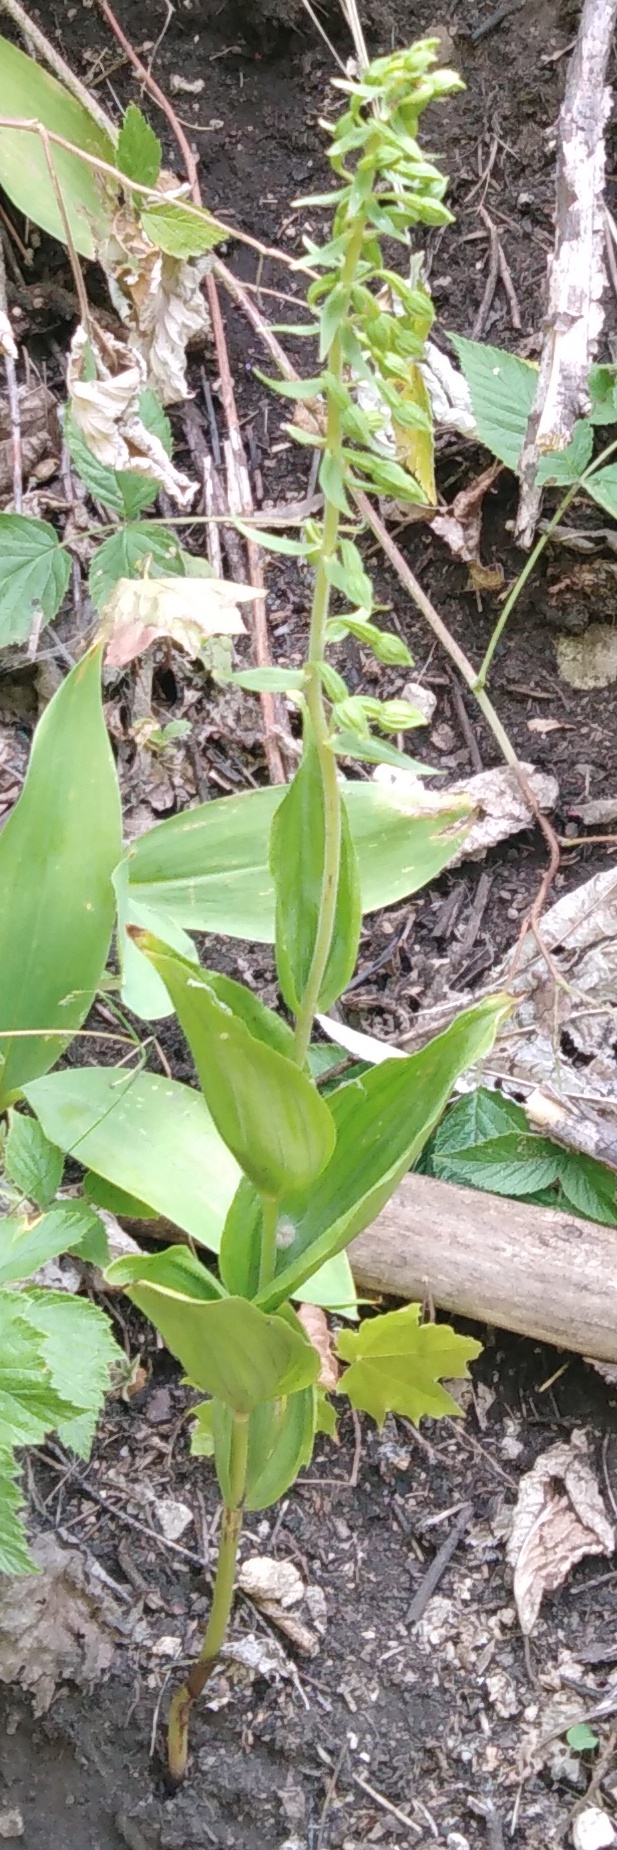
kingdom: Plantae
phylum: Tracheophyta
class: Liliopsida
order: Asparagales
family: Orchidaceae
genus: Epipactis
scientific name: Epipactis helleborine
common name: Broad-leaved helleborine
